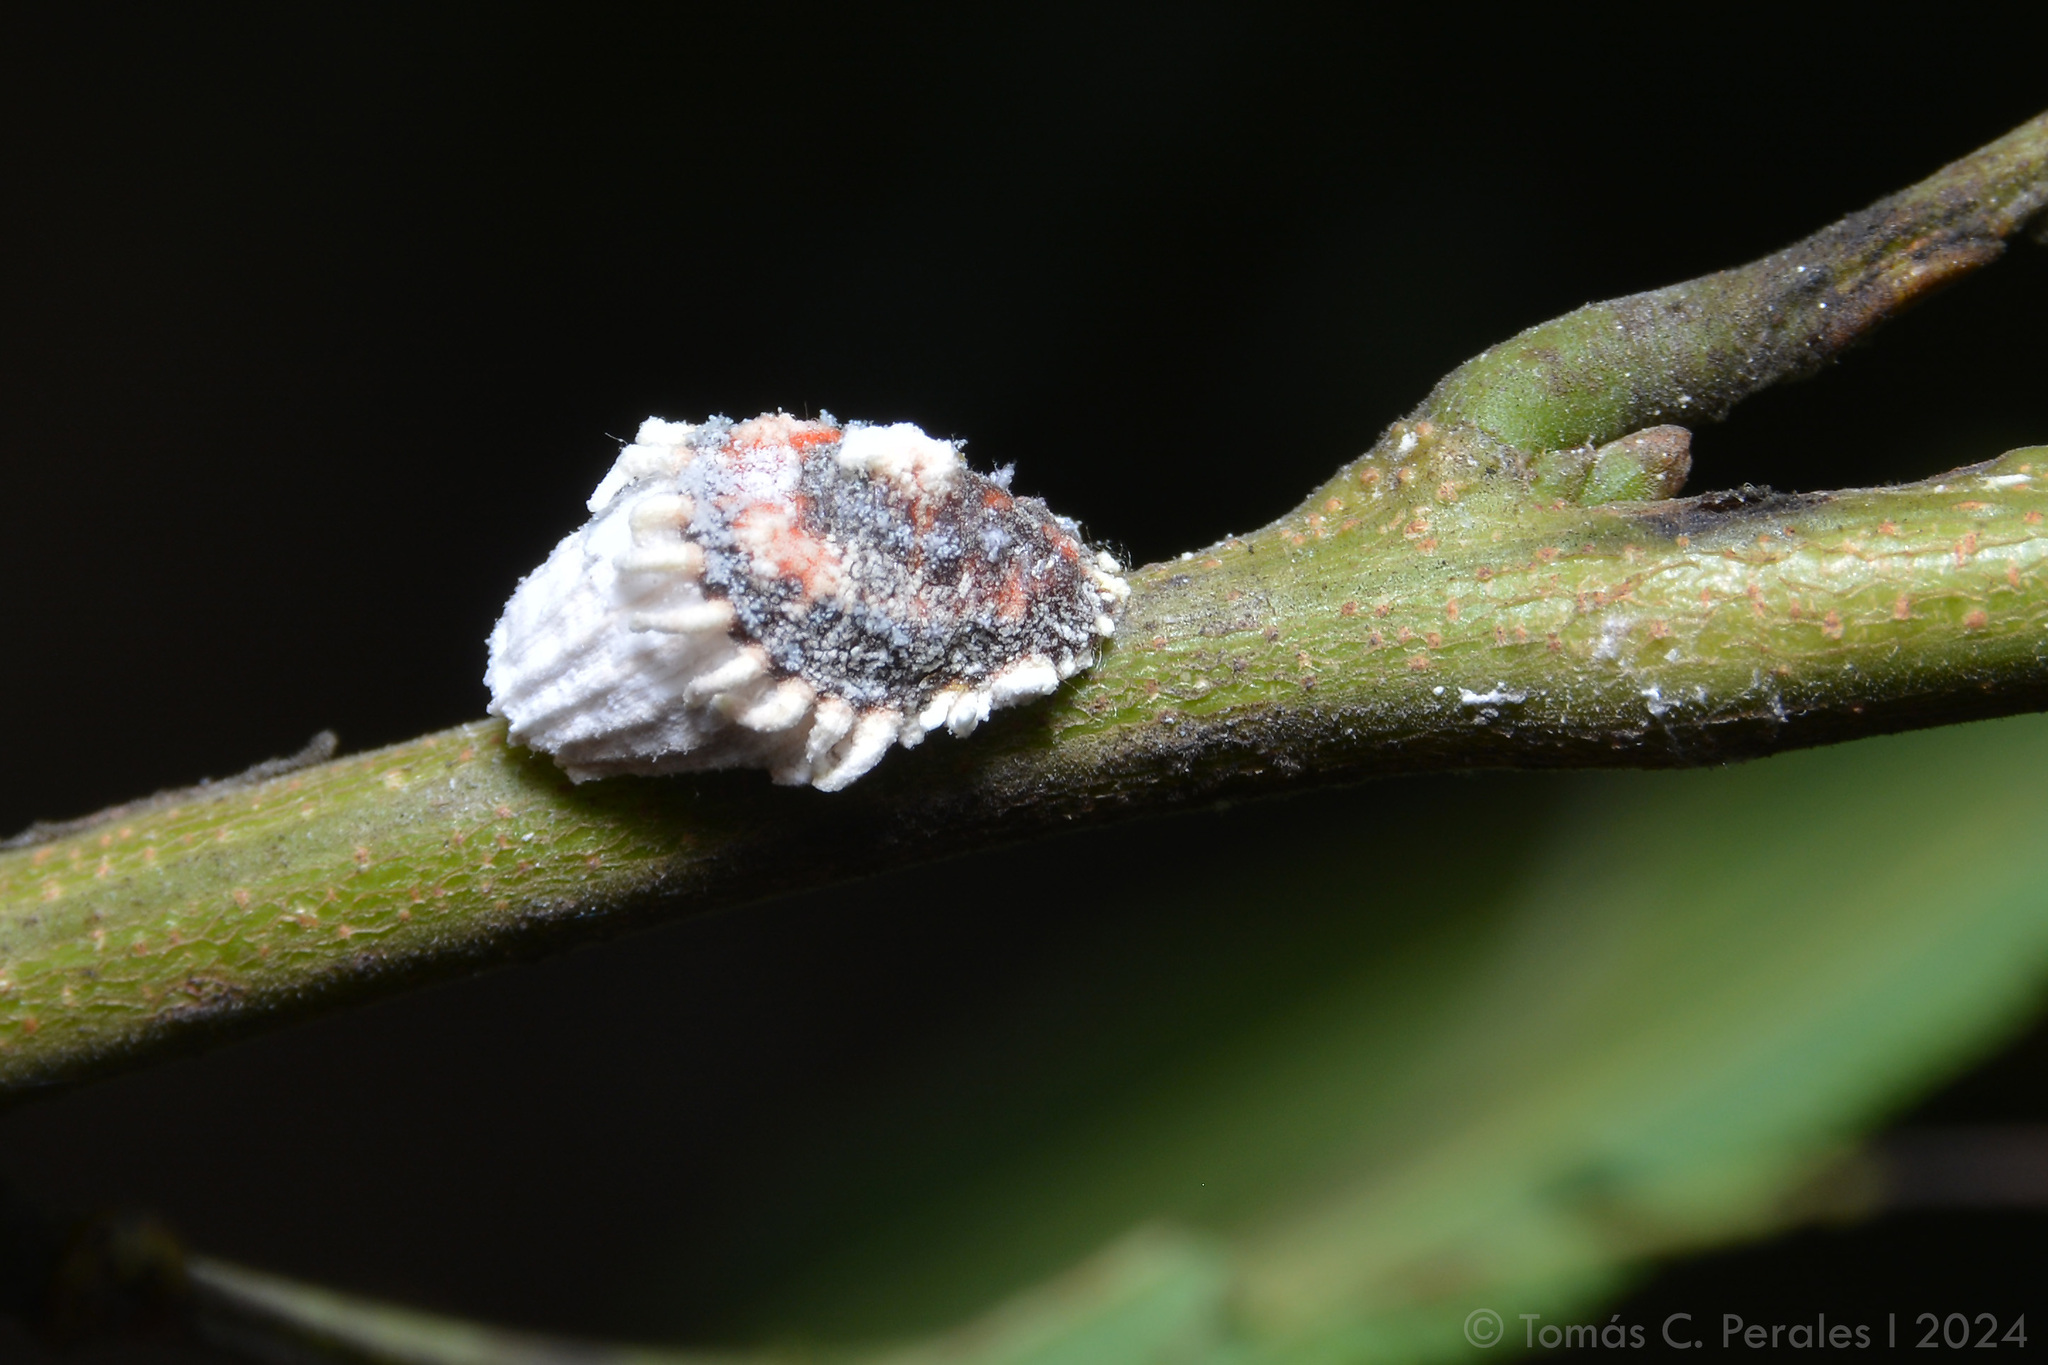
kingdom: Animalia
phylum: Arthropoda
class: Insecta
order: Hemiptera
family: Margarodidae
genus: Icerya
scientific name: Icerya purchasi
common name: Cottony cushion scale
